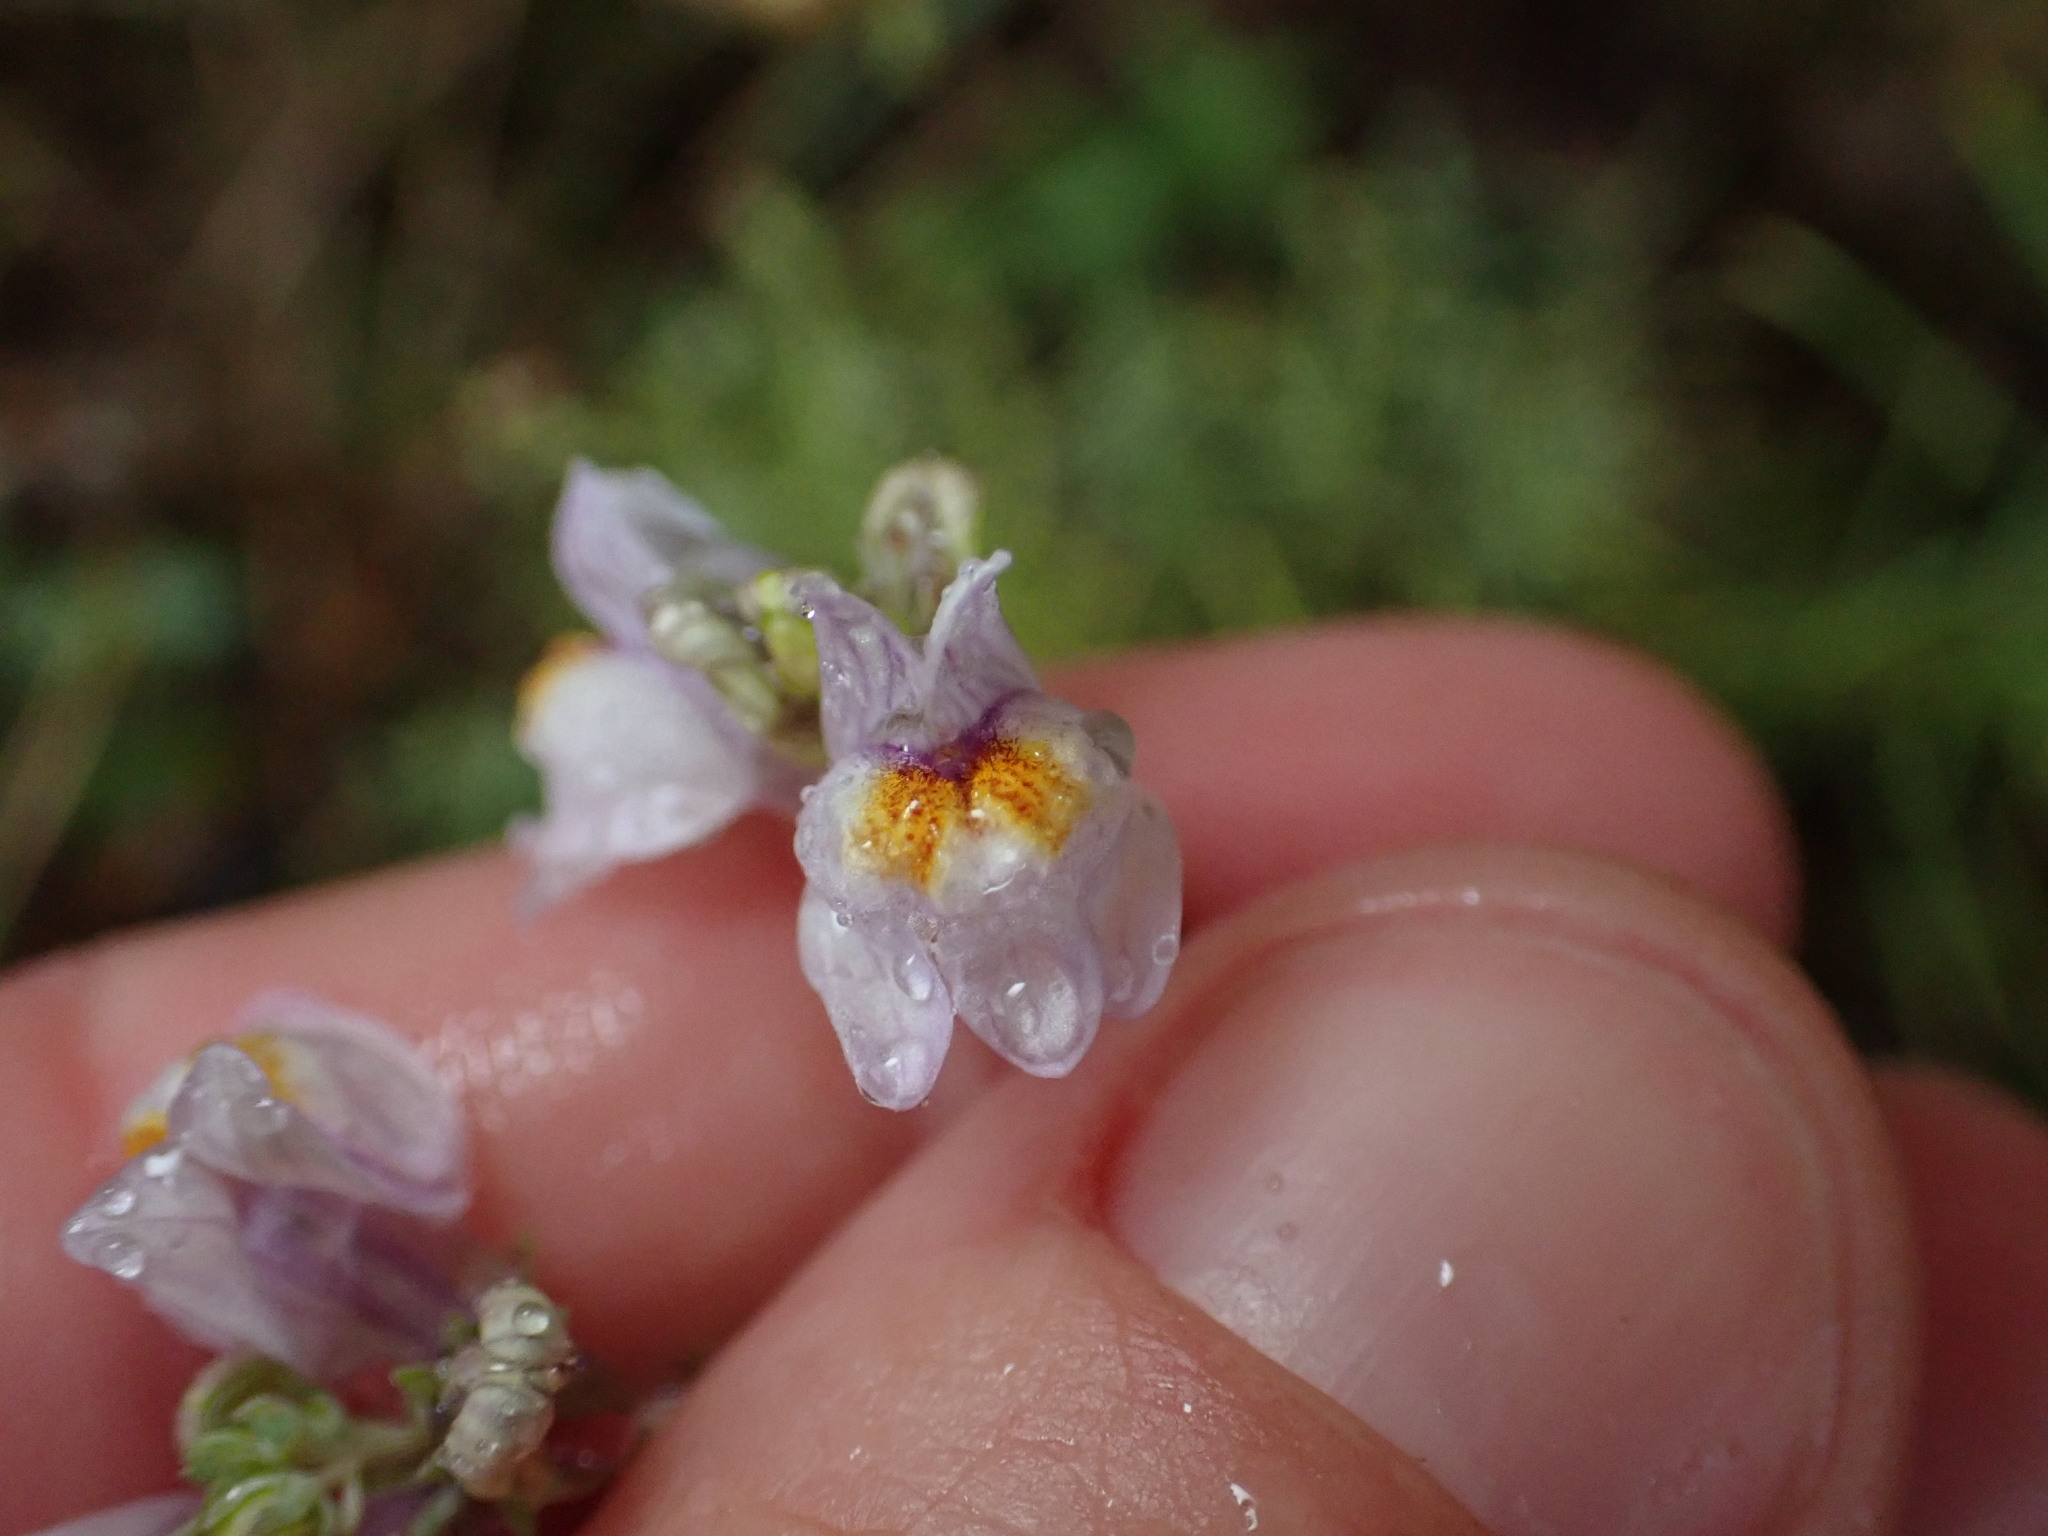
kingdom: Plantae
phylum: Tracheophyta
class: Magnoliopsida
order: Lamiales
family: Plantaginaceae
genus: Linaria
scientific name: Linaria repens
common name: Pale toadflax
